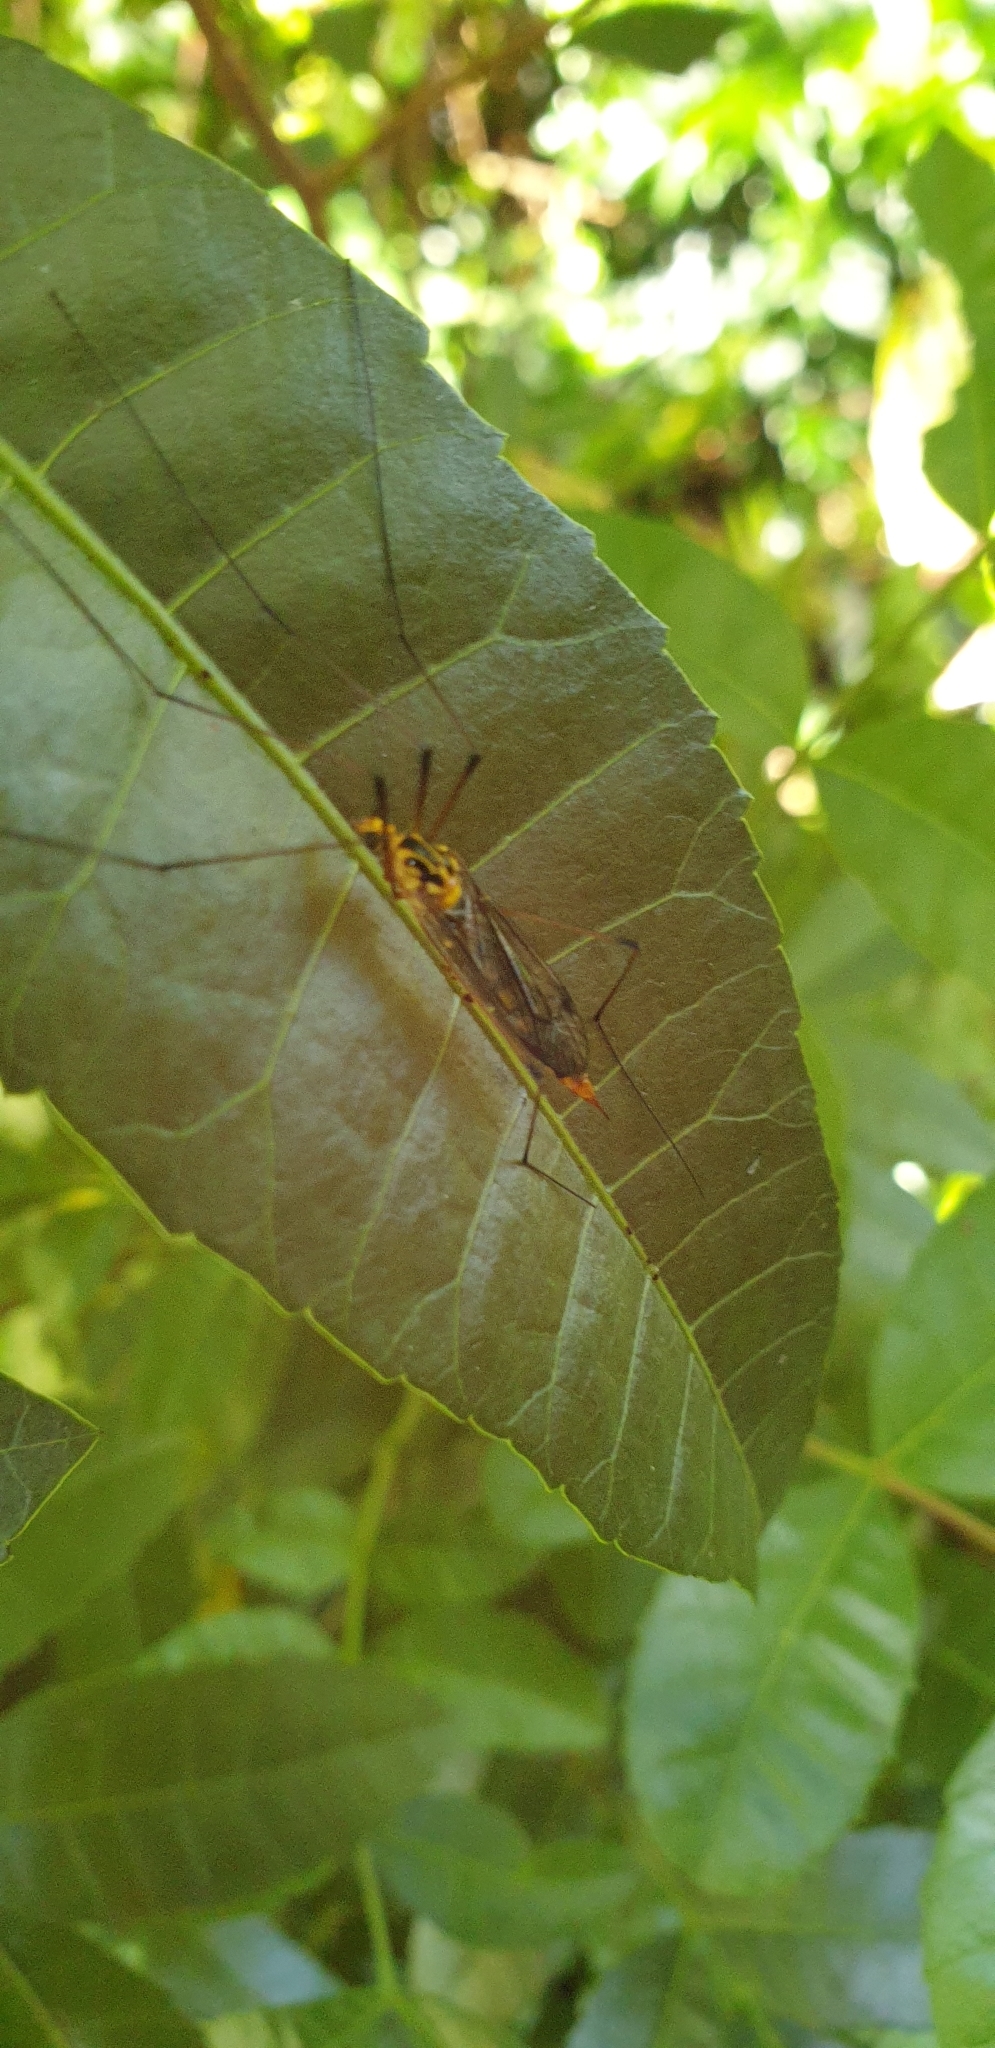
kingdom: Animalia
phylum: Arthropoda
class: Insecta
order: Diptera
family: Tipulidae
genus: Nephrotoma
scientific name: Nephrotoma australasiae
